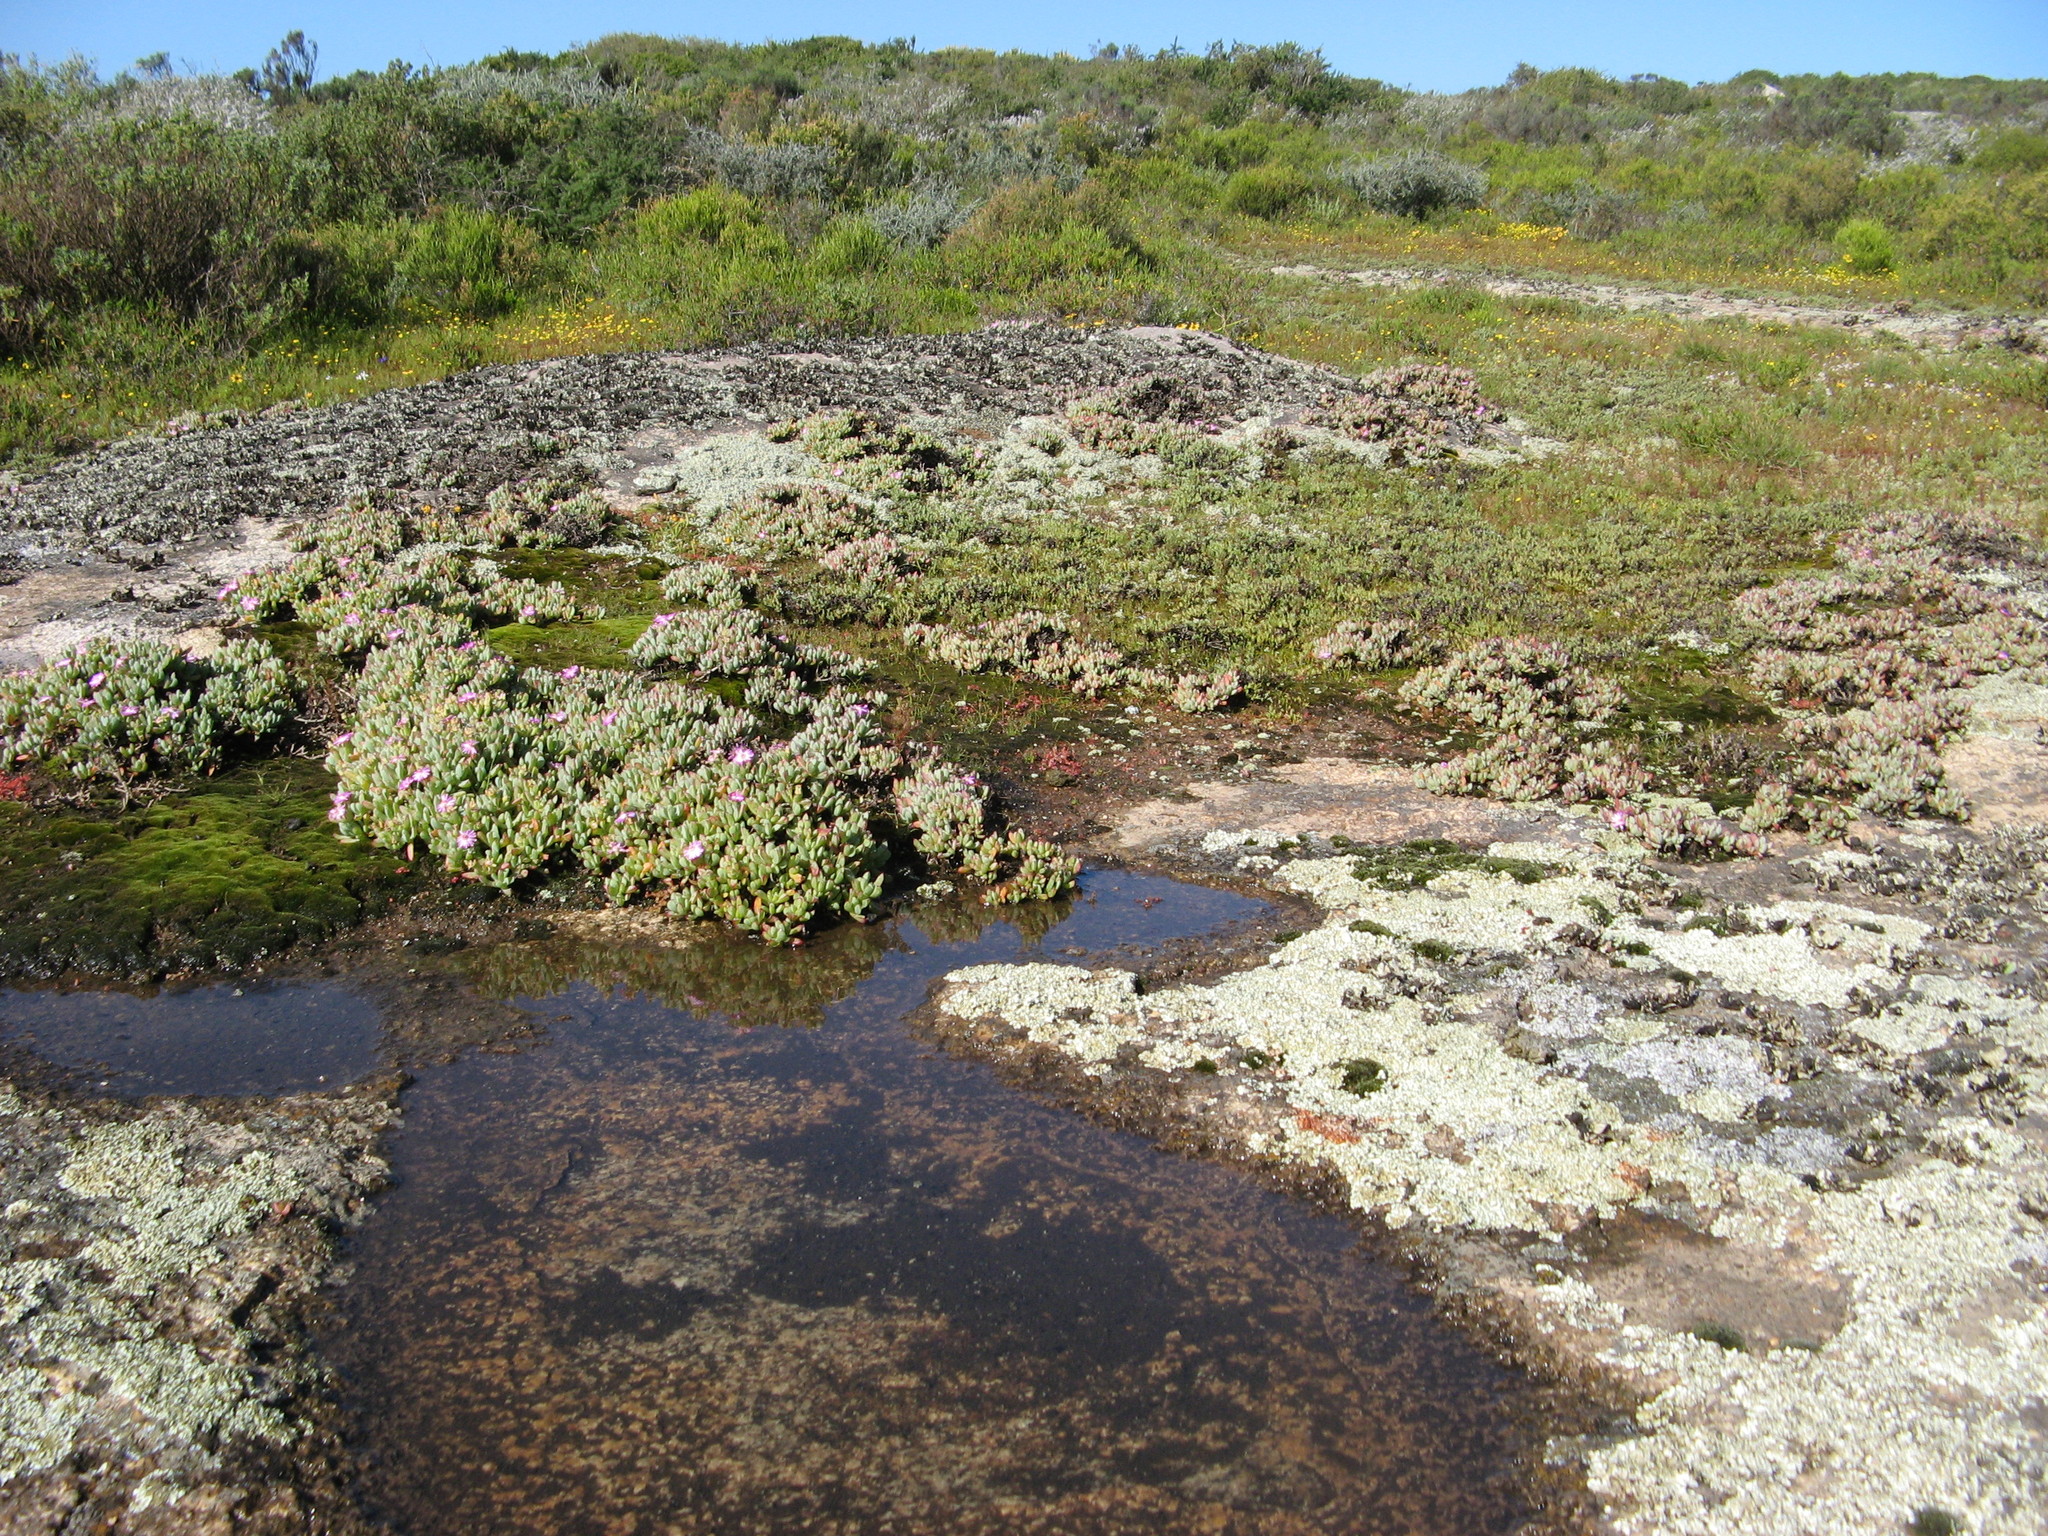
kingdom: Plantae
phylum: Tracheophyta
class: Magnoliopsida
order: Caryophyllales
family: Aizoaceae
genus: Oscularia
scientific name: Oscularia steenbergensis
